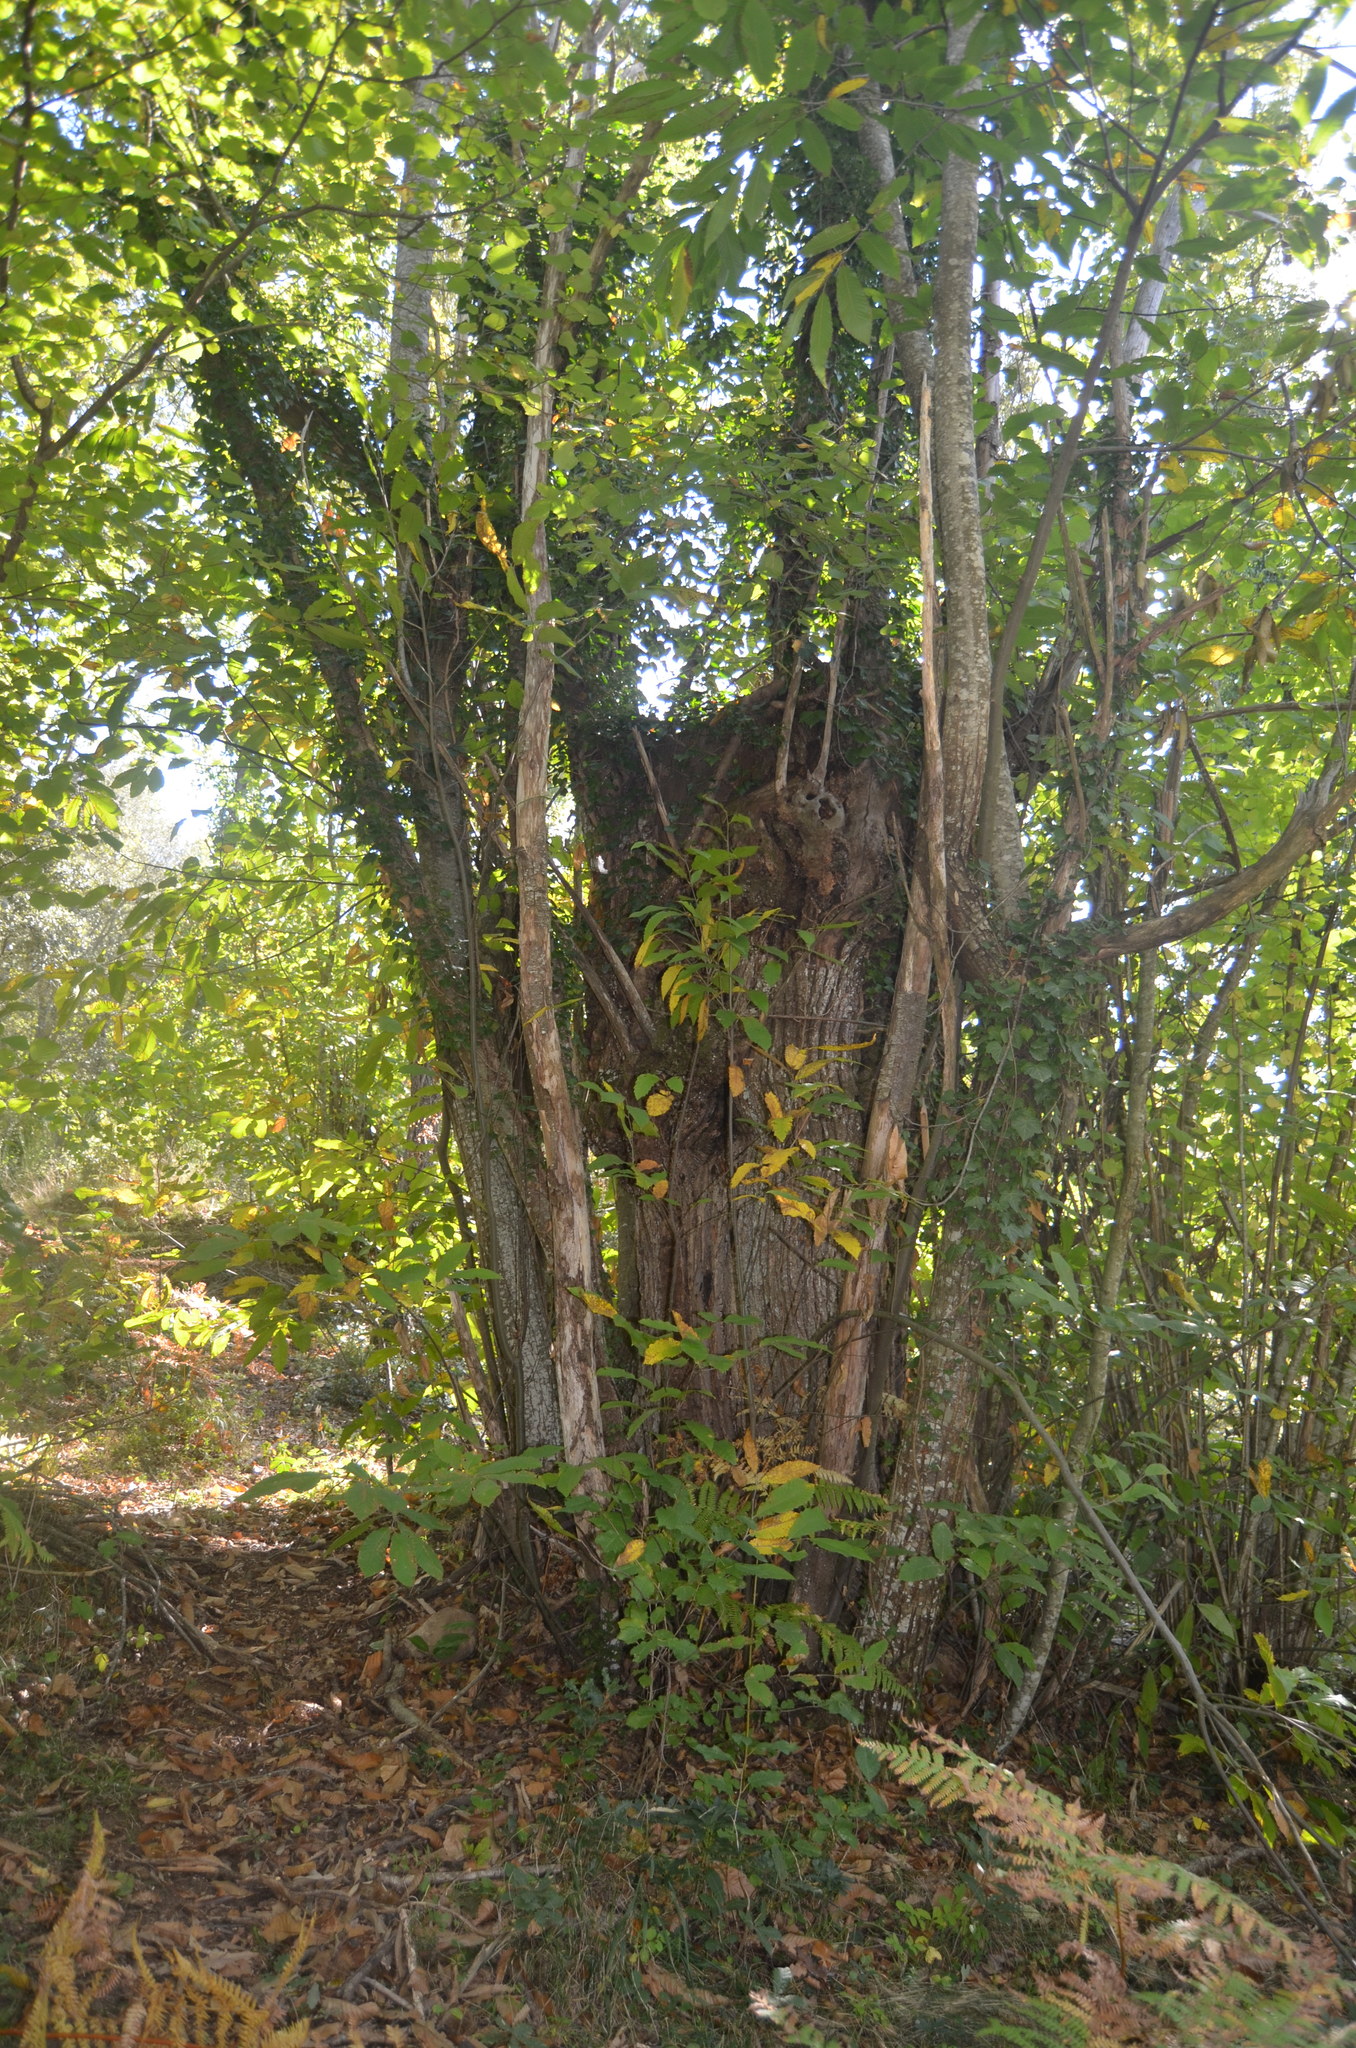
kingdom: Plantae
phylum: Tracheophyta
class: Magnoliopsida
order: Fagales
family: Fagaceae
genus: Castanea
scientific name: Castanea sativa
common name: Sweet chestnut
